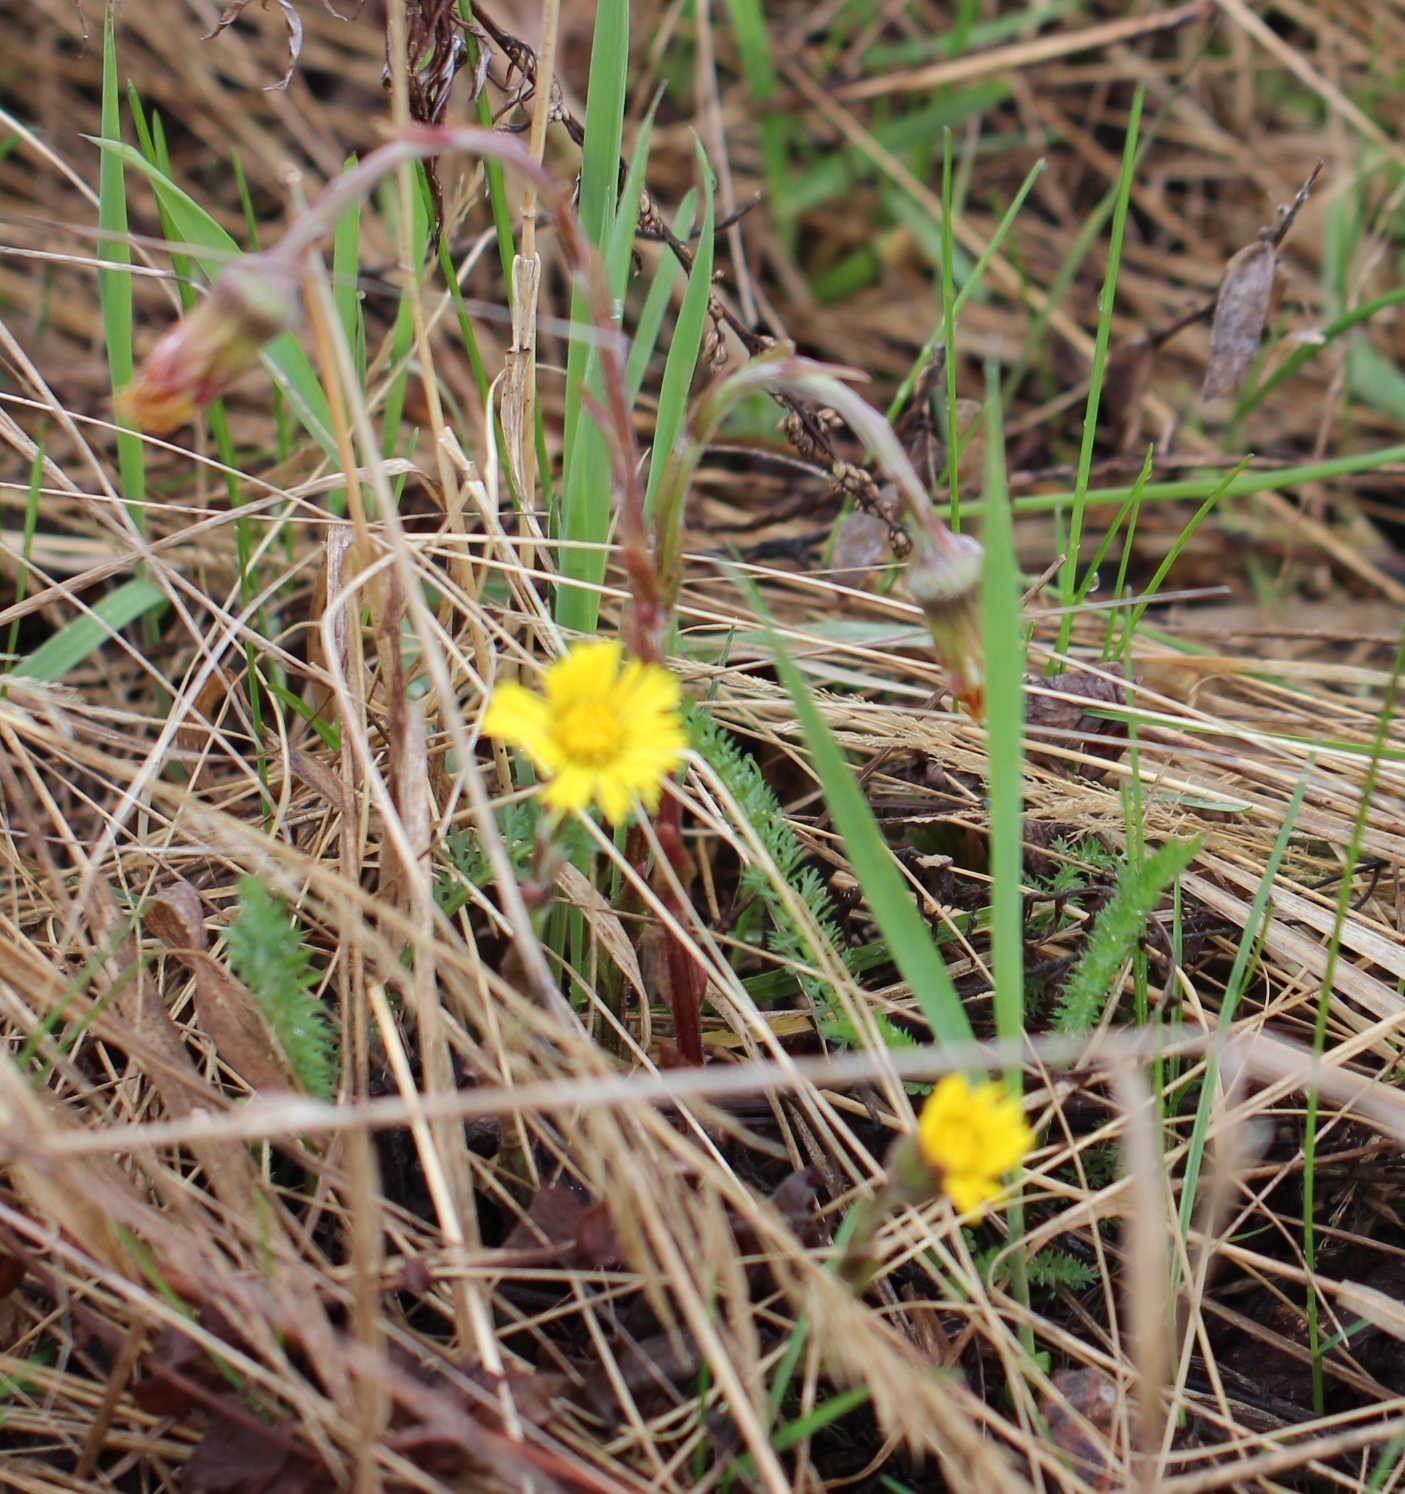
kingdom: Plantae
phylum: Tracheophyta
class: Magnoliopsida
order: Asterales
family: Asteraceae
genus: Tussilago
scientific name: Tussilago farfara
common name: Coltsfoot
